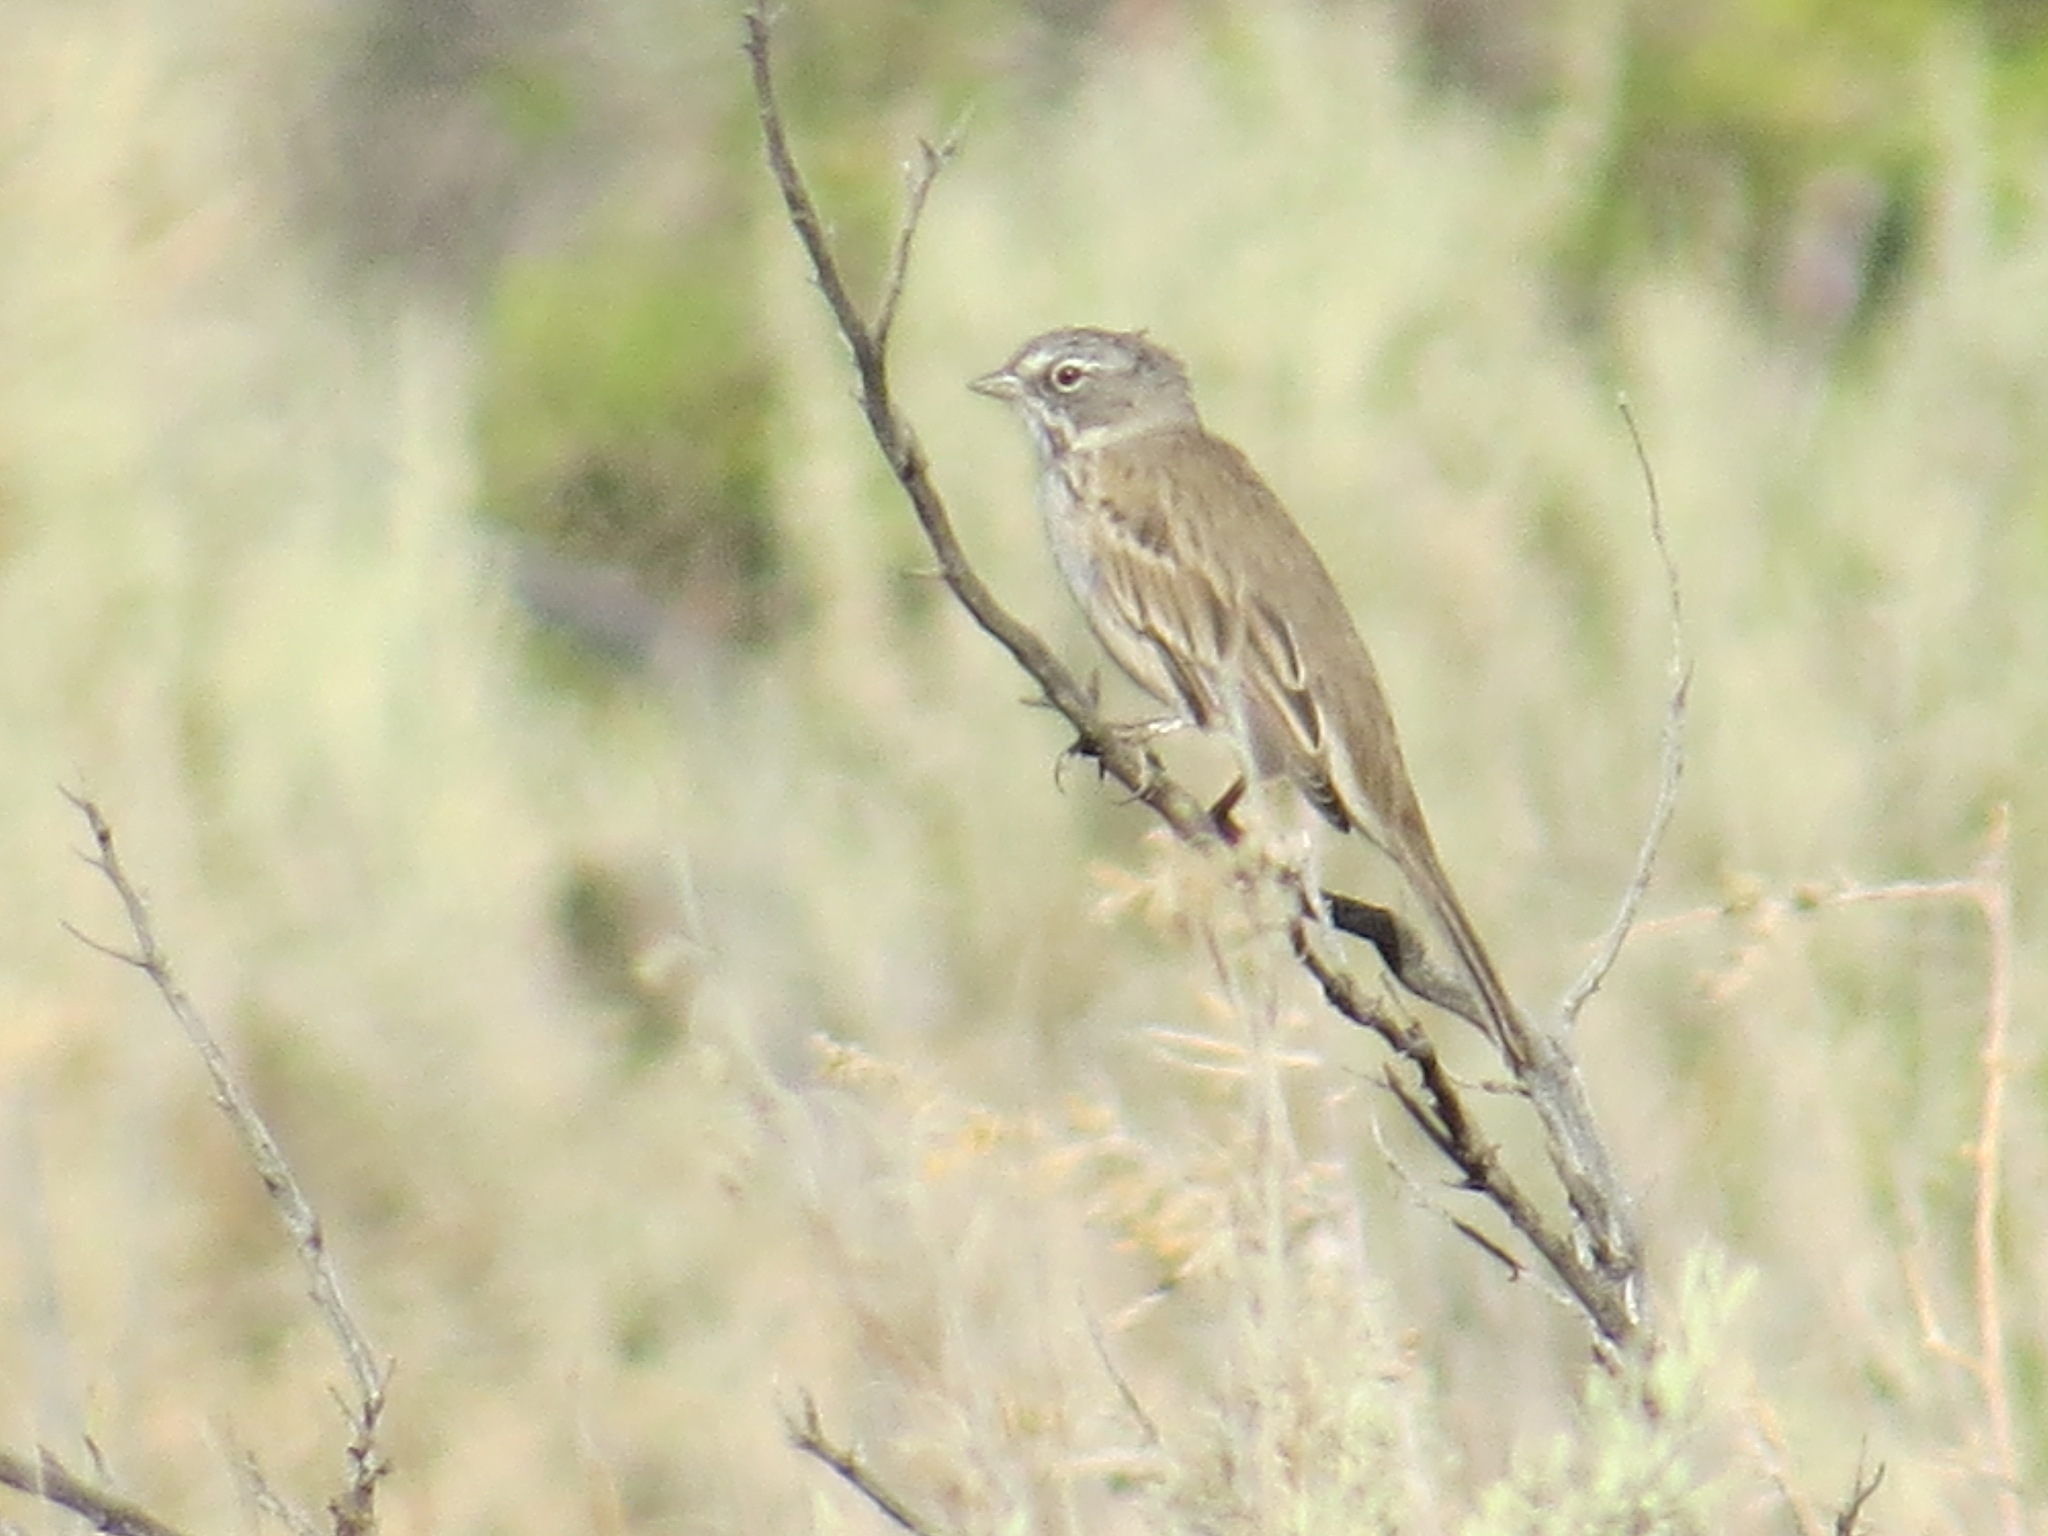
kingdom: Animalia
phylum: Chordata
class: Aves
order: Passeriformes
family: Passerellidae
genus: Artemisiospiza
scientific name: Artemisiospiza
